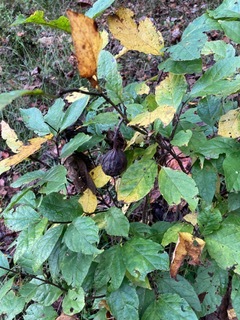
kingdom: Plantae
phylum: Tracheophyta
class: Magnoliopsida
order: Laurales
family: Calycanthaceae
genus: Calycanthus
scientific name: Calycanthus floridus
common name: Carolina-allspice
